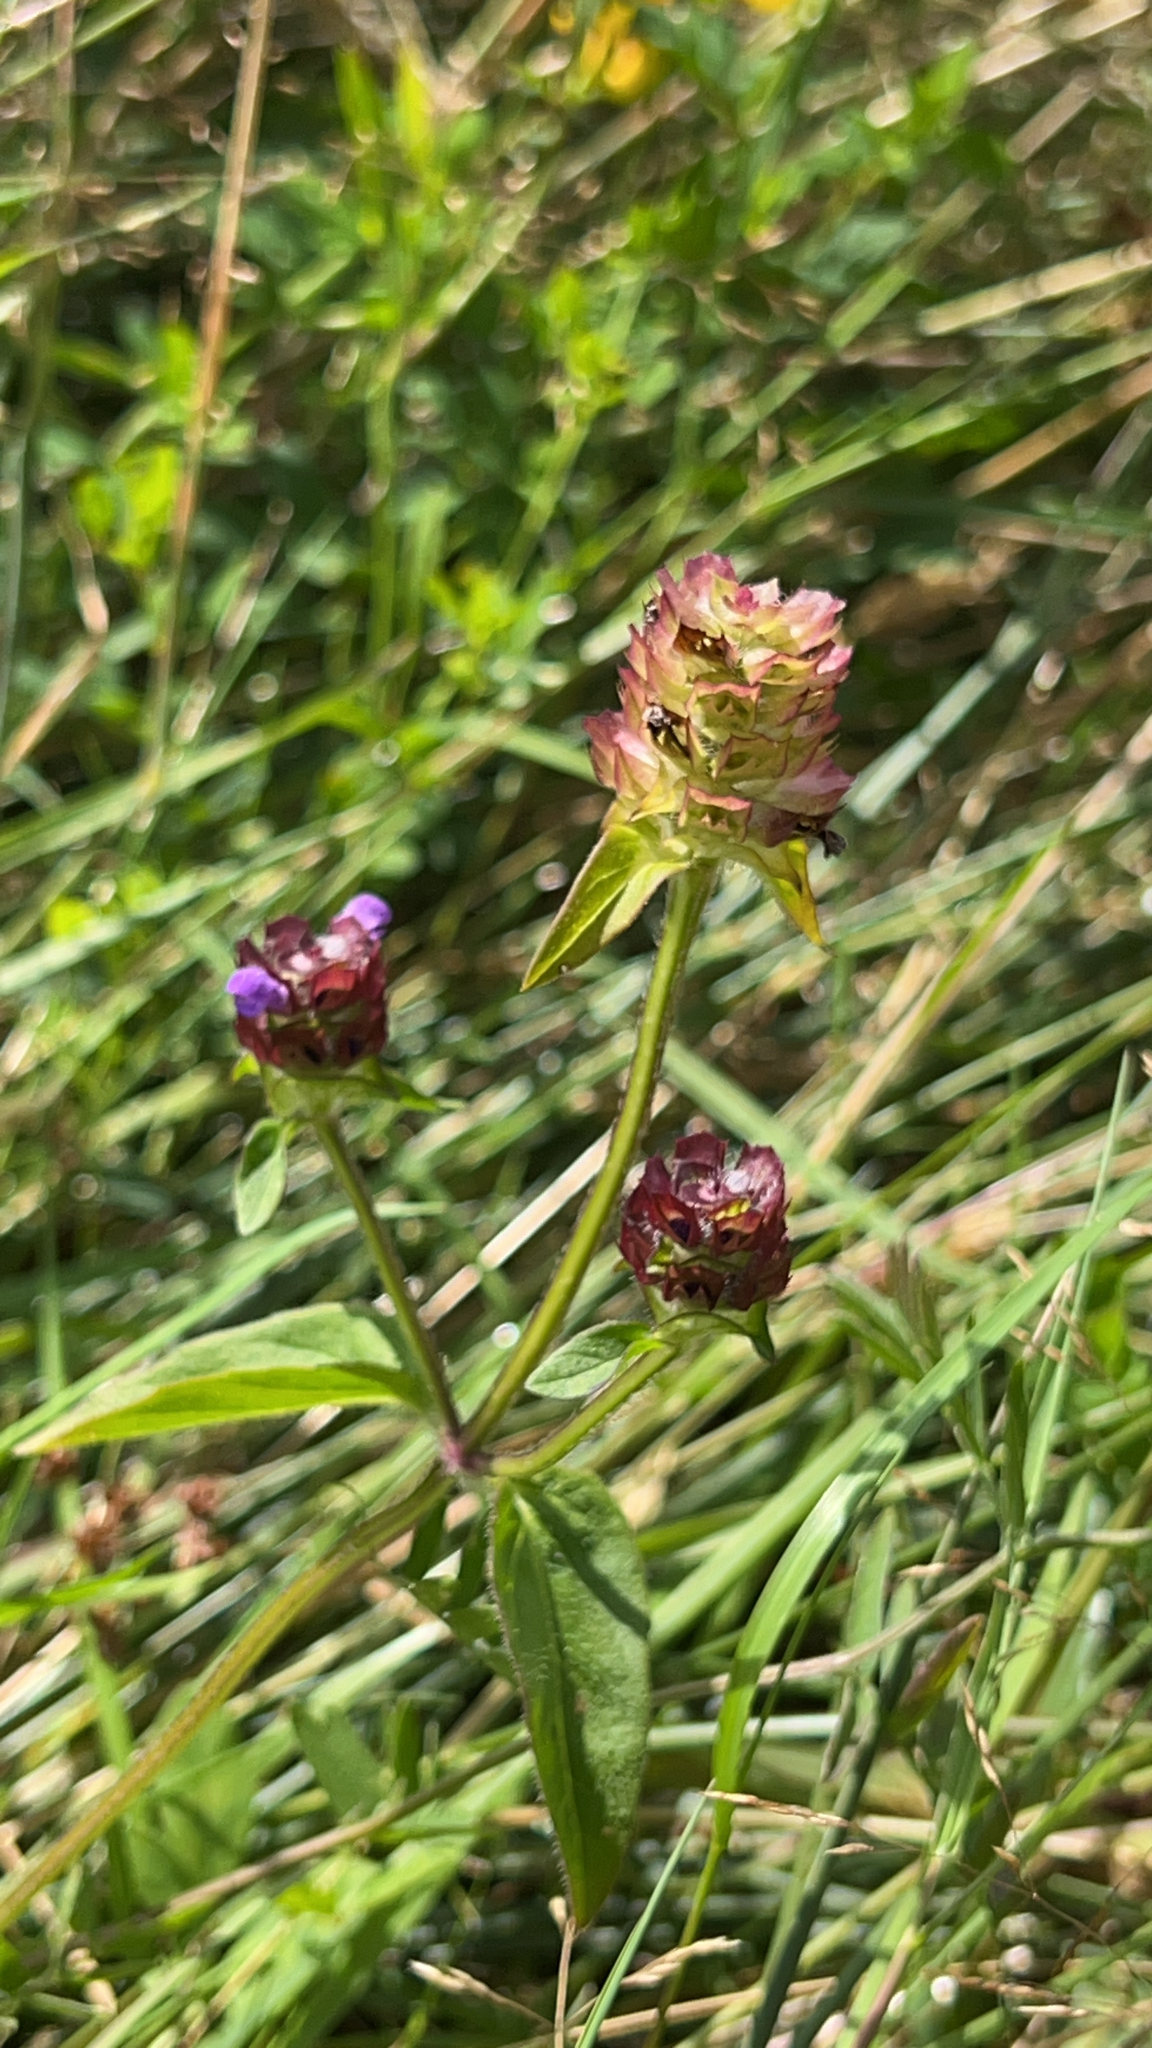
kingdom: Plantae
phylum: Tracheophyta
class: Magnoliopsida
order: Lamiales
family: Lamiaceae
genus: Prunella
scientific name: Prunella vulgaris
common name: Heal-all
